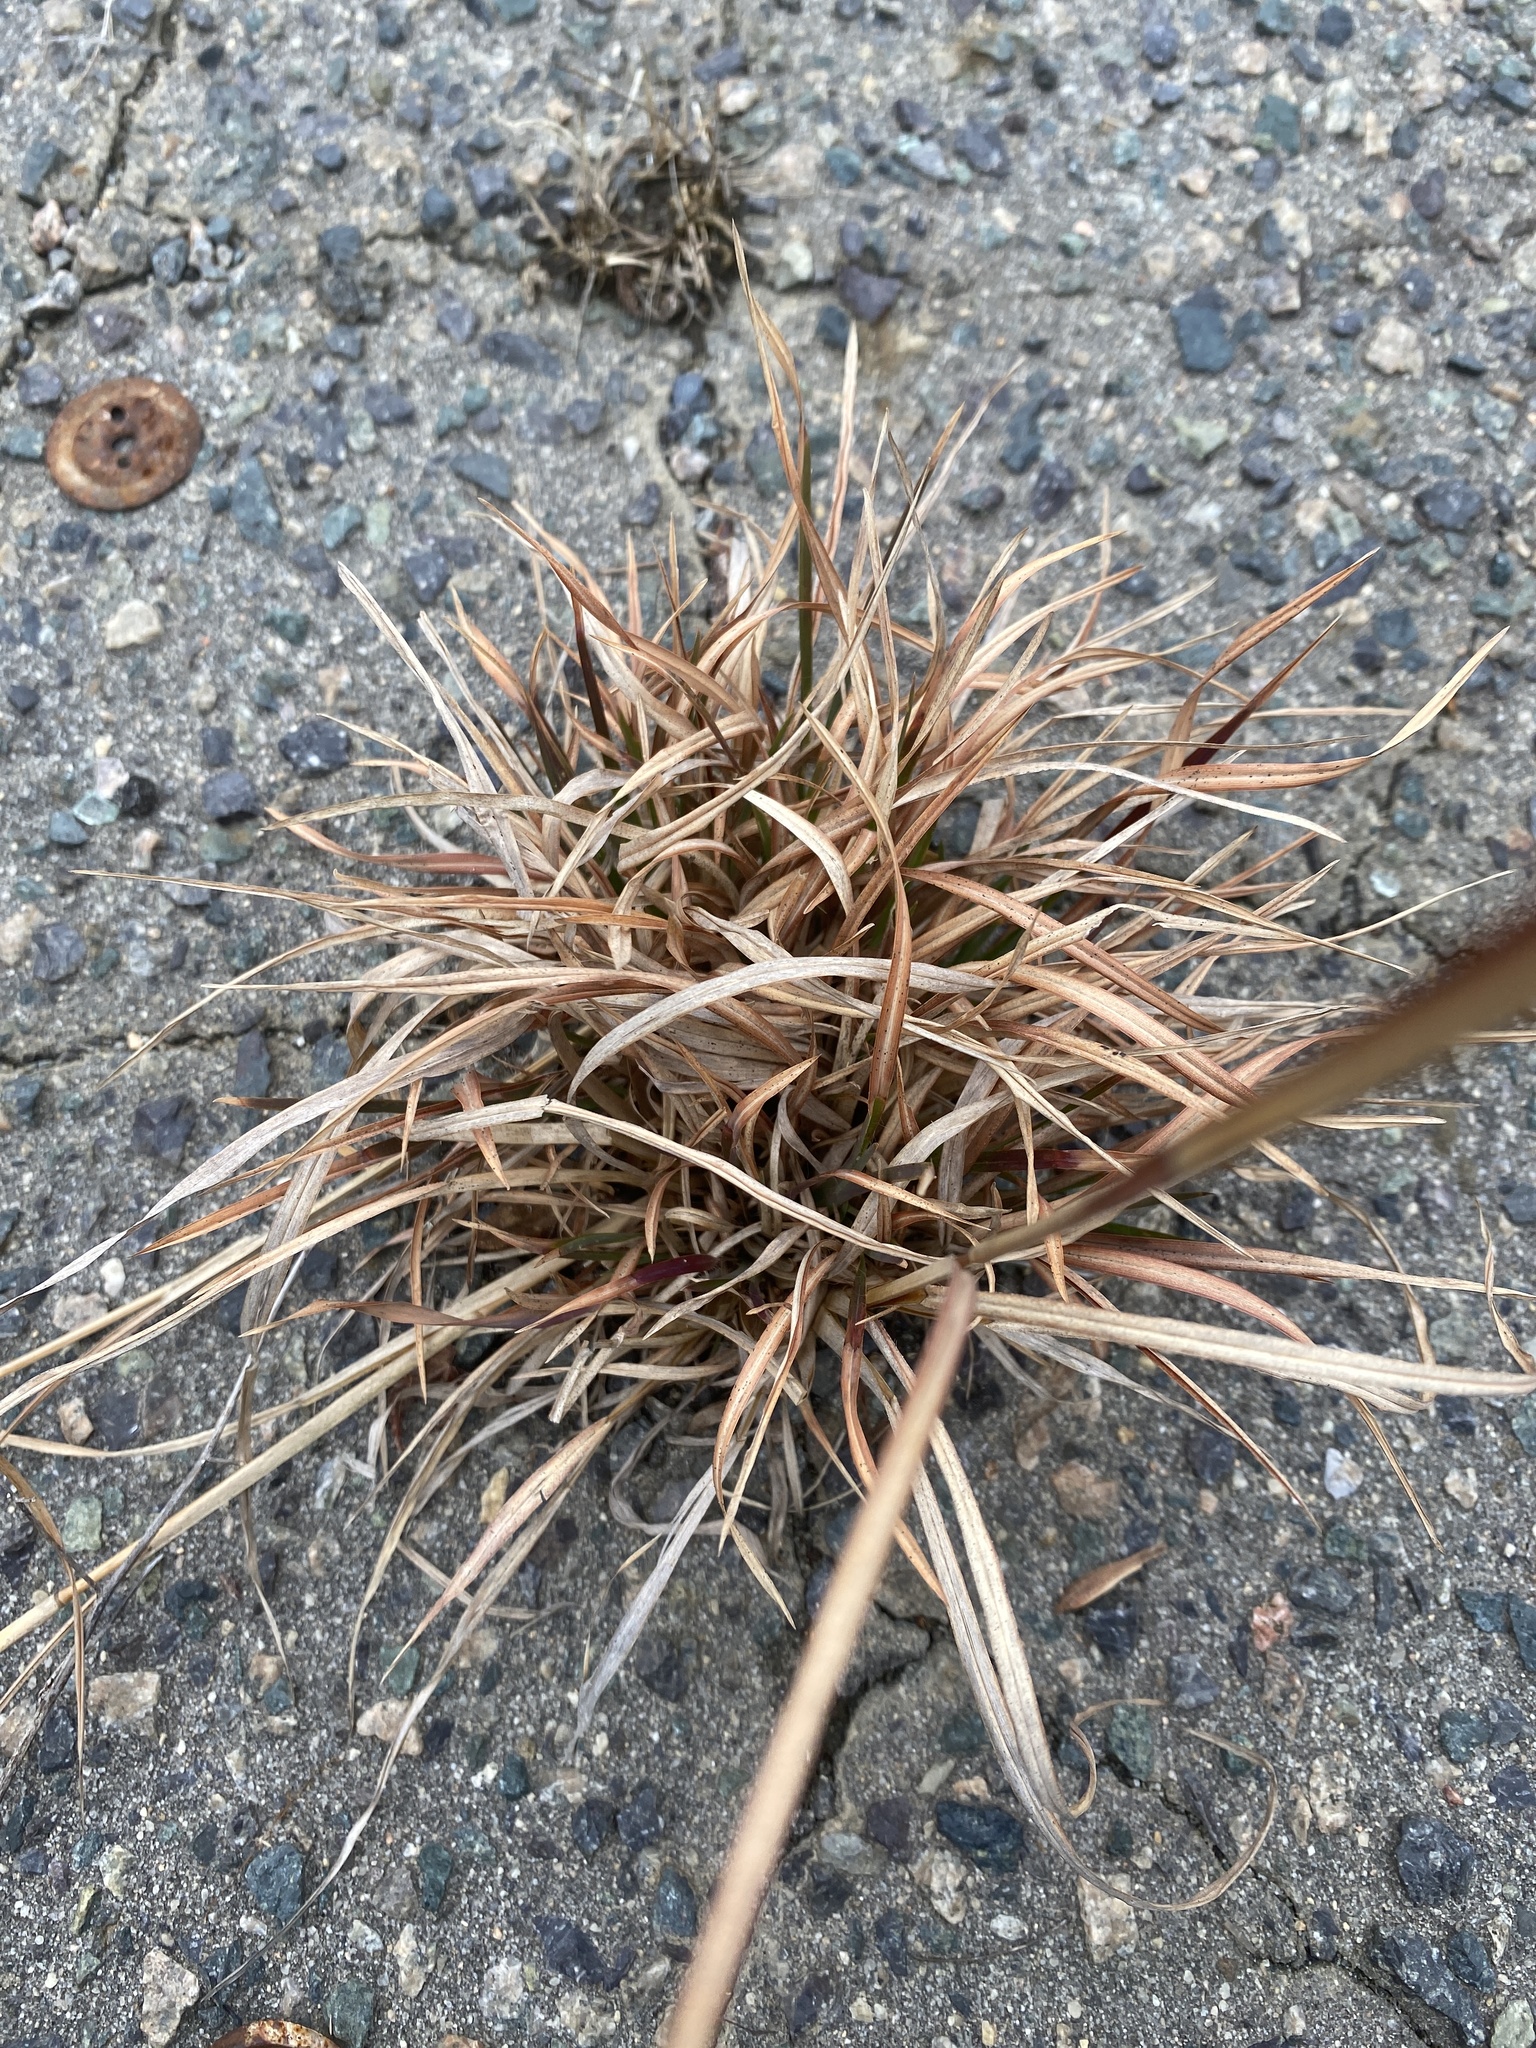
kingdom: Plantae
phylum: Tracheophyta
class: Liliopsida
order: Poales
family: Poaceae
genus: Andropogon
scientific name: Andropogon virginicus
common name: Broomsedge bluestem
